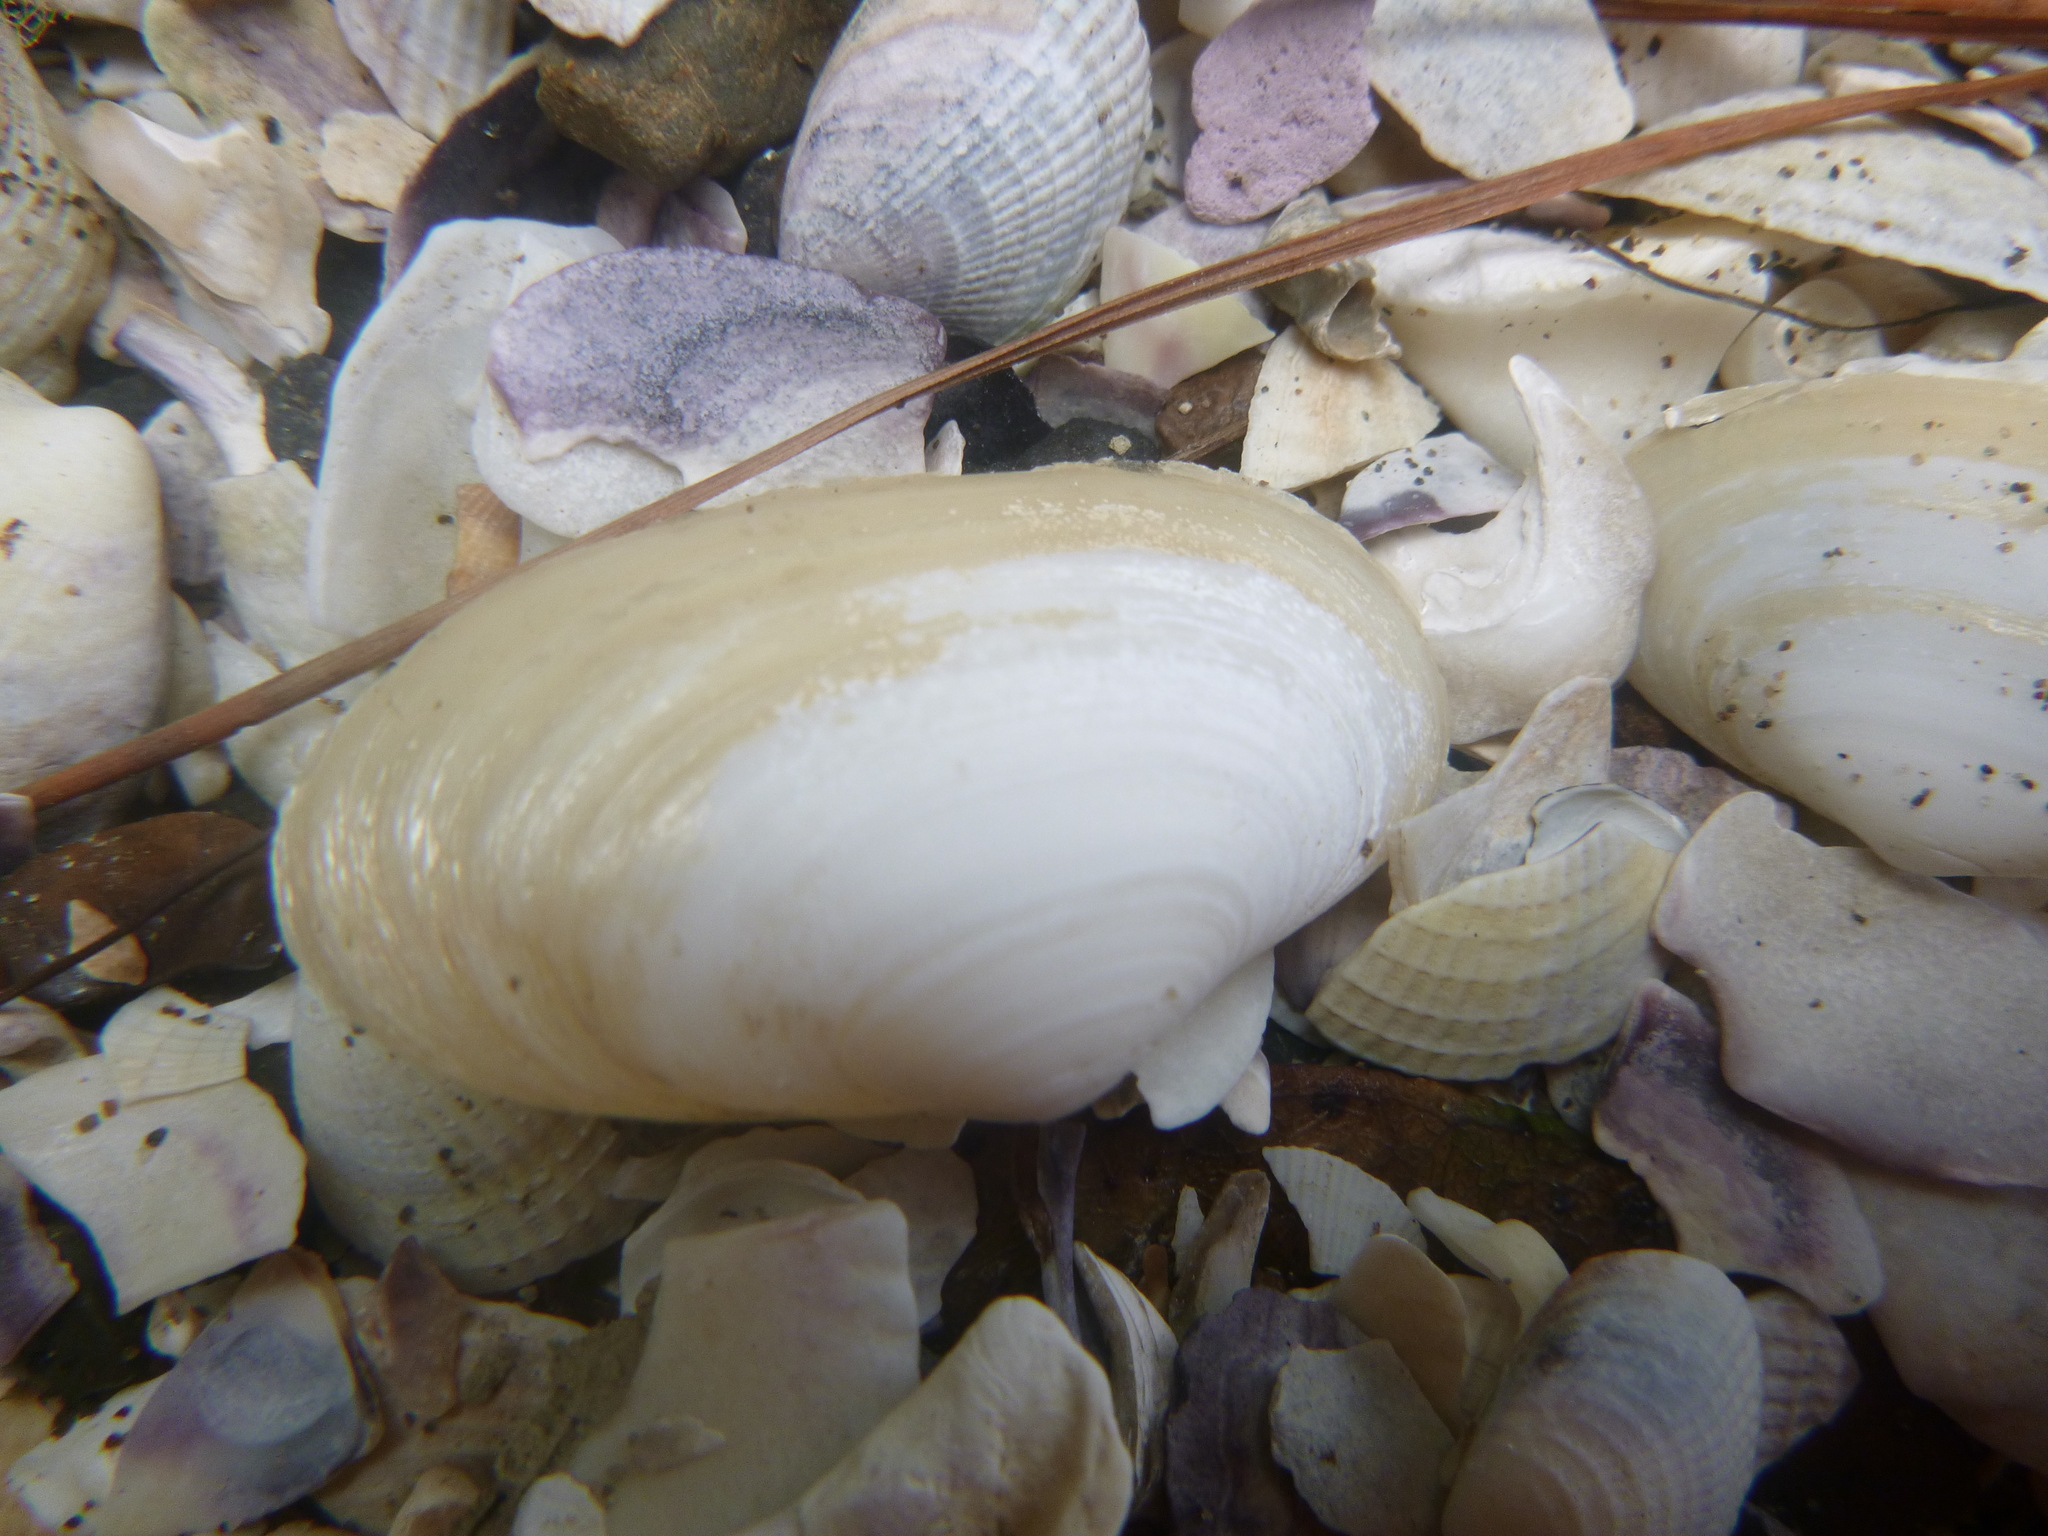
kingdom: Animalia
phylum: Mollusca
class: Bivalvia
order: Venerida
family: Mesodesmatidae
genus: Paphies
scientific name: Paphies australis
